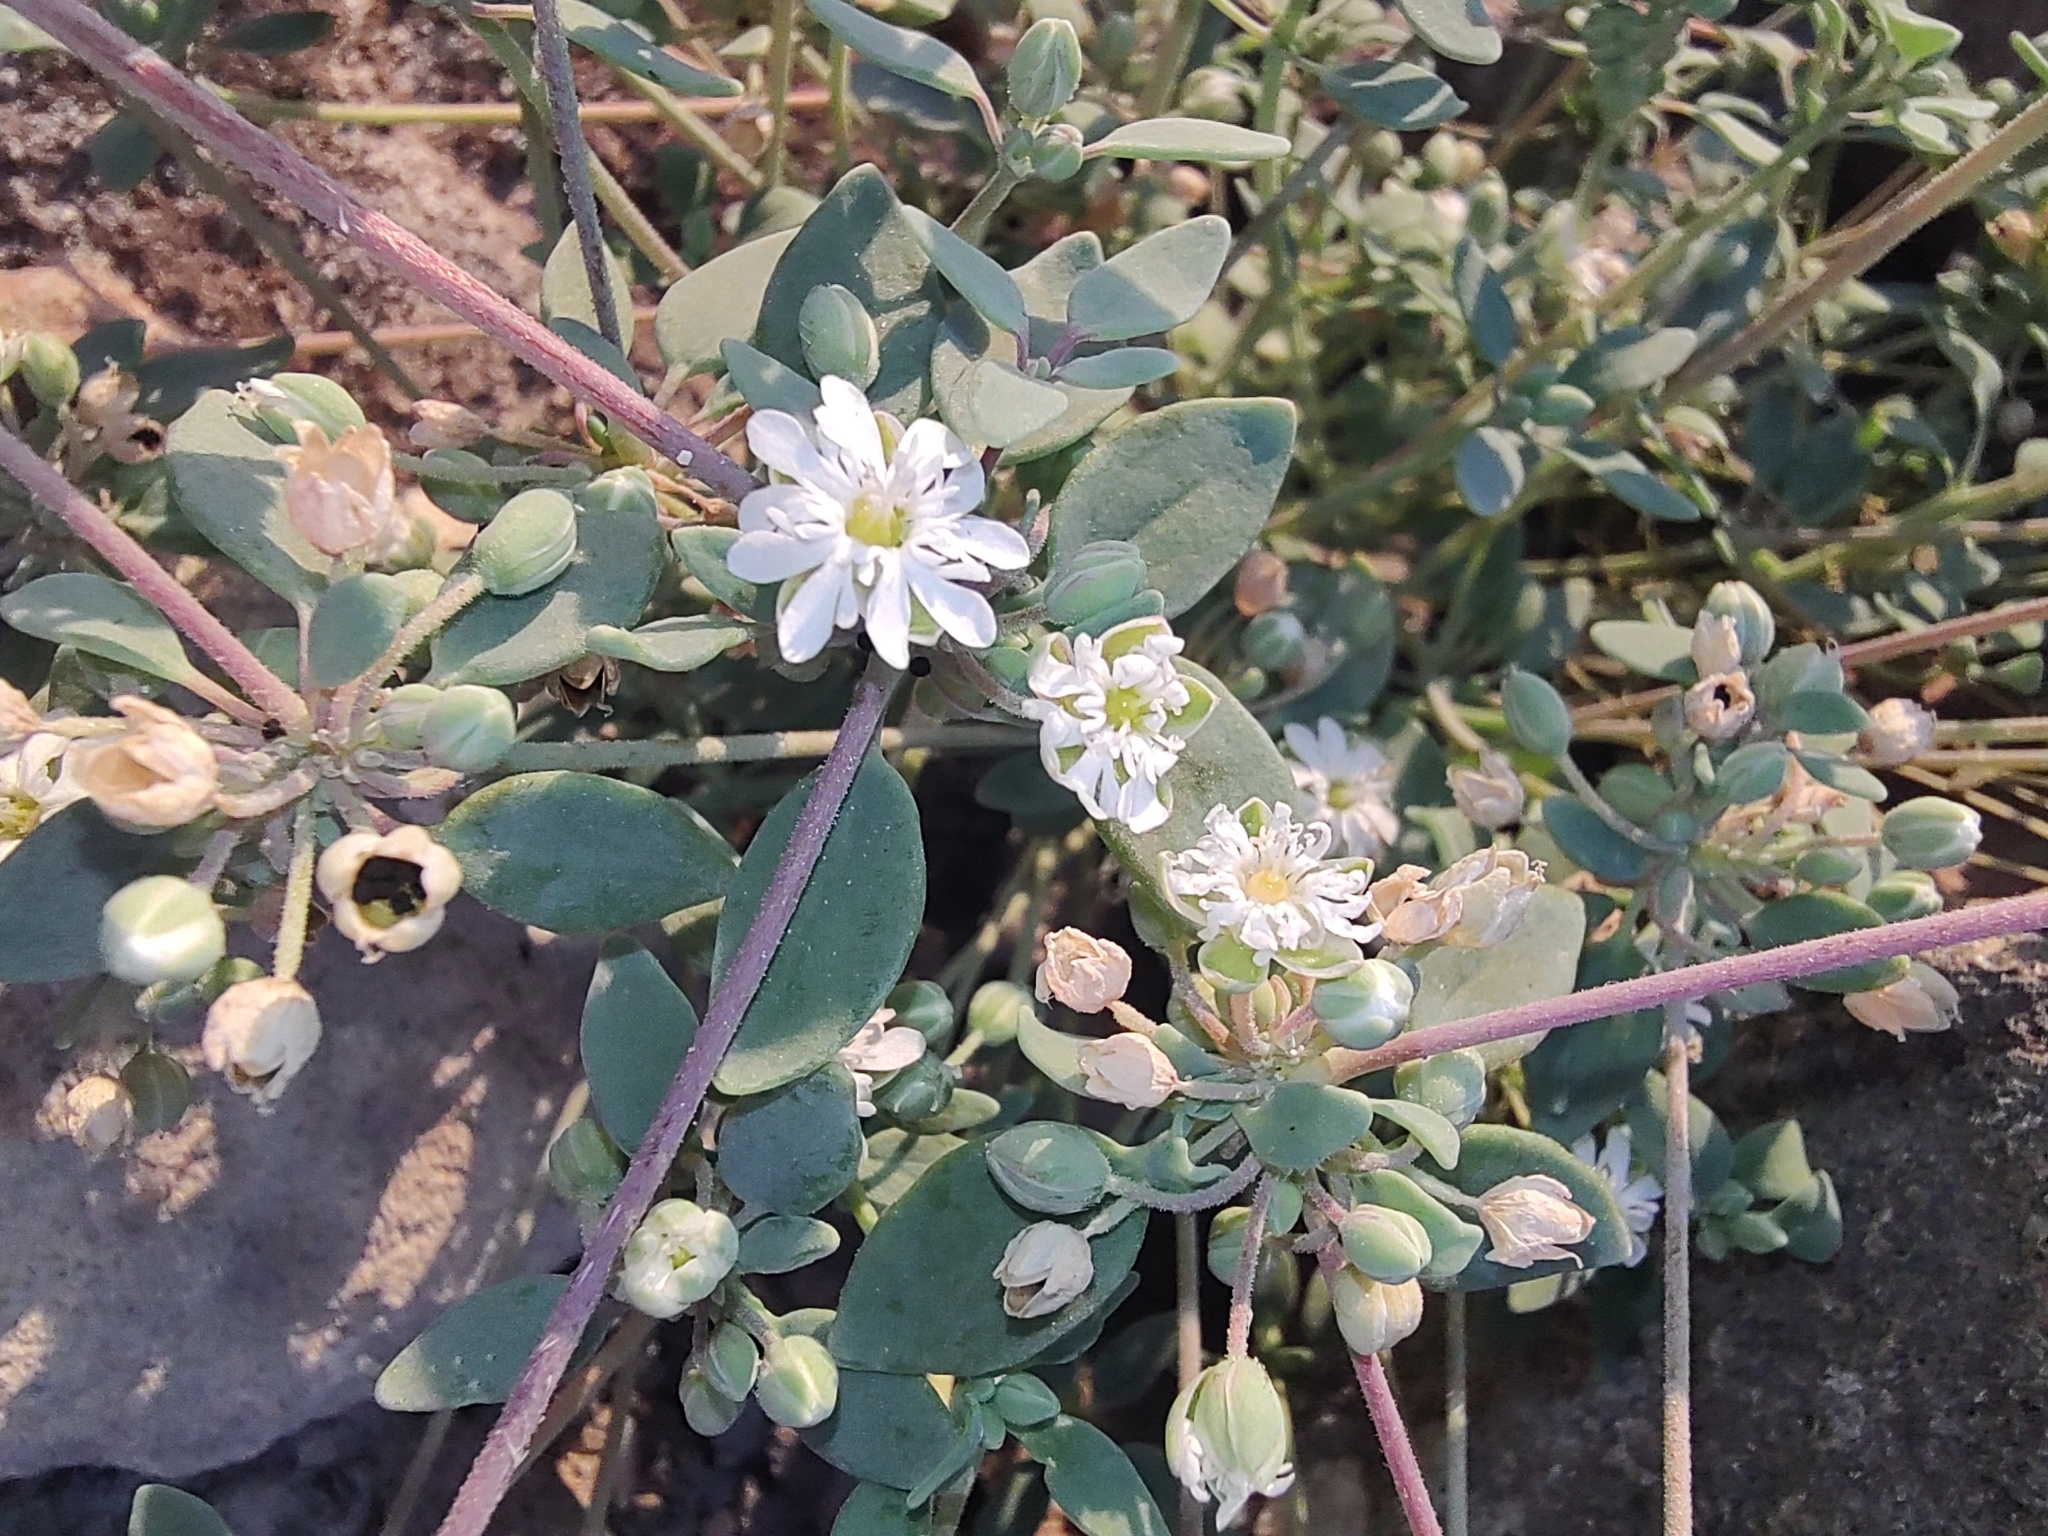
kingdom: Plantae
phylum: Tracheophyta
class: Magnoliopsida
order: Caryophyllales
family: Caryophyllaceae
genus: Drymaria
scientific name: Drymaria holosteoides
